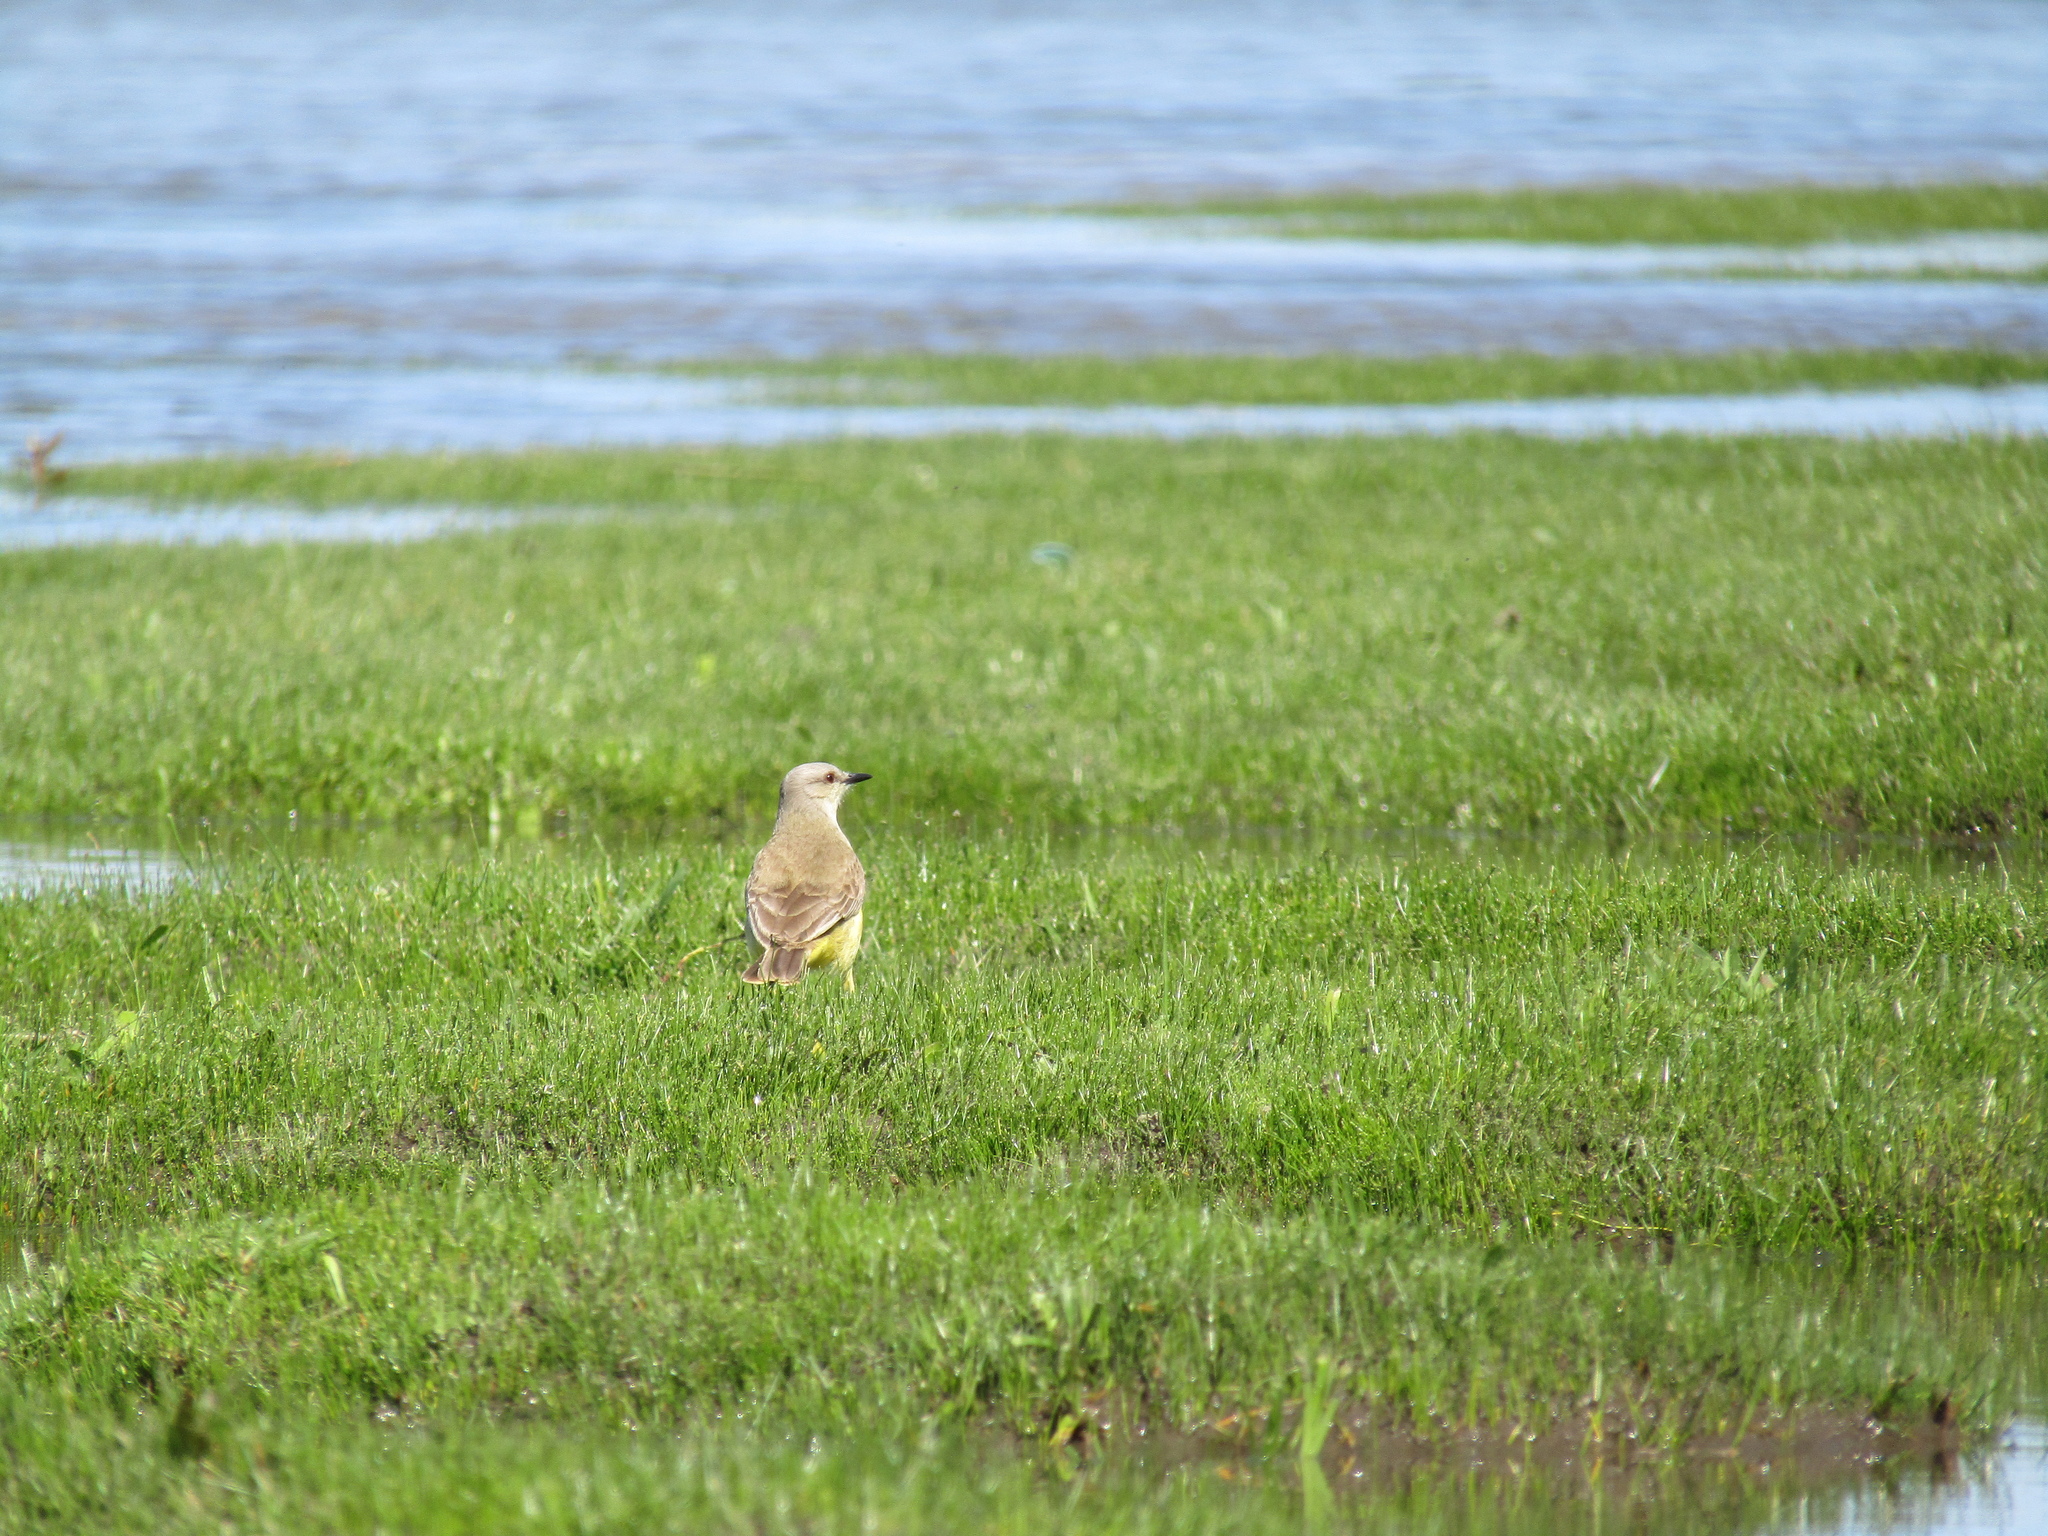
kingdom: Animalia
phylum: Chordata
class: Aves
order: Passeriformes
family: Tyrannidae
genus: Machetornis
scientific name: Machetornis rixosa
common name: Cattle tyrant
